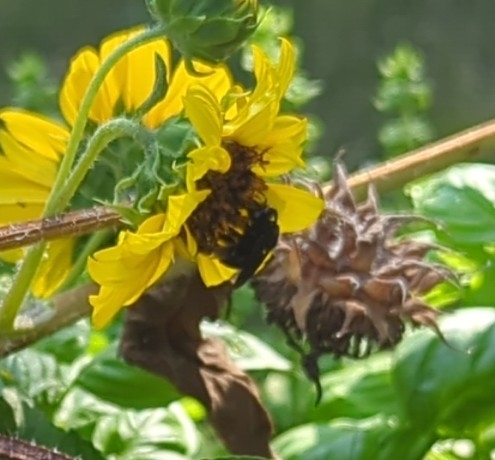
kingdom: Animalia
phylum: Arthropoda
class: Insecta
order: Hymenoptera
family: Apidae
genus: Melissodes
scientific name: Melissodes bimaculatus
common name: Two-spotted long-horned bee
